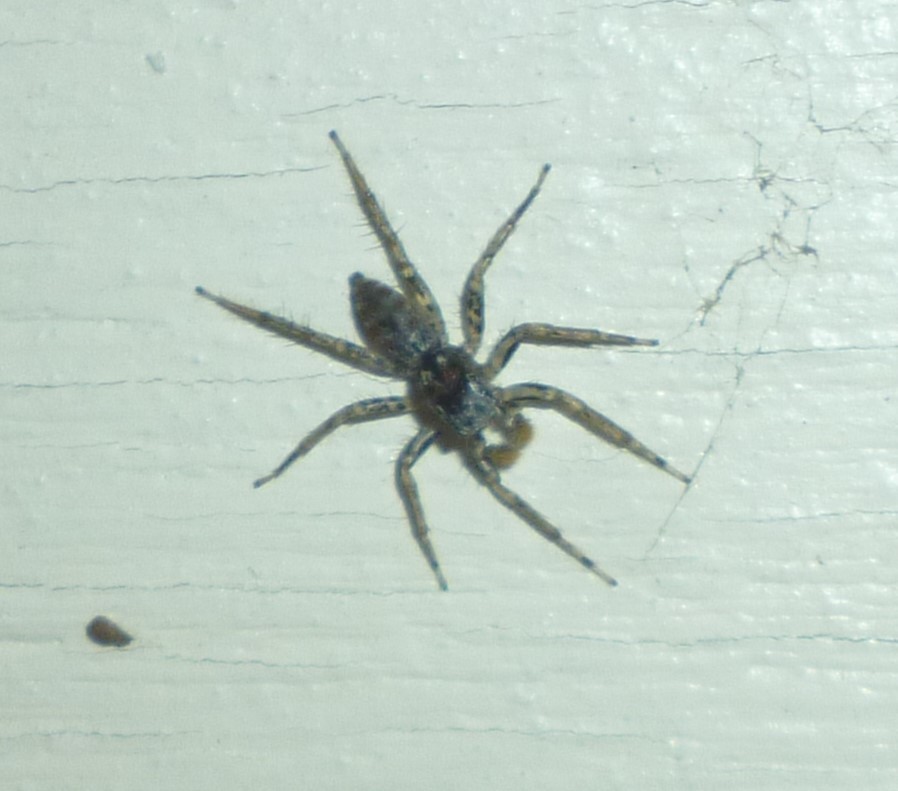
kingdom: Animalia
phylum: Arthropoda
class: Arachnida
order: Araneae
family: Salticidae
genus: Maevia
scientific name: Maevia inclemens
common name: Dimorphic jumper
